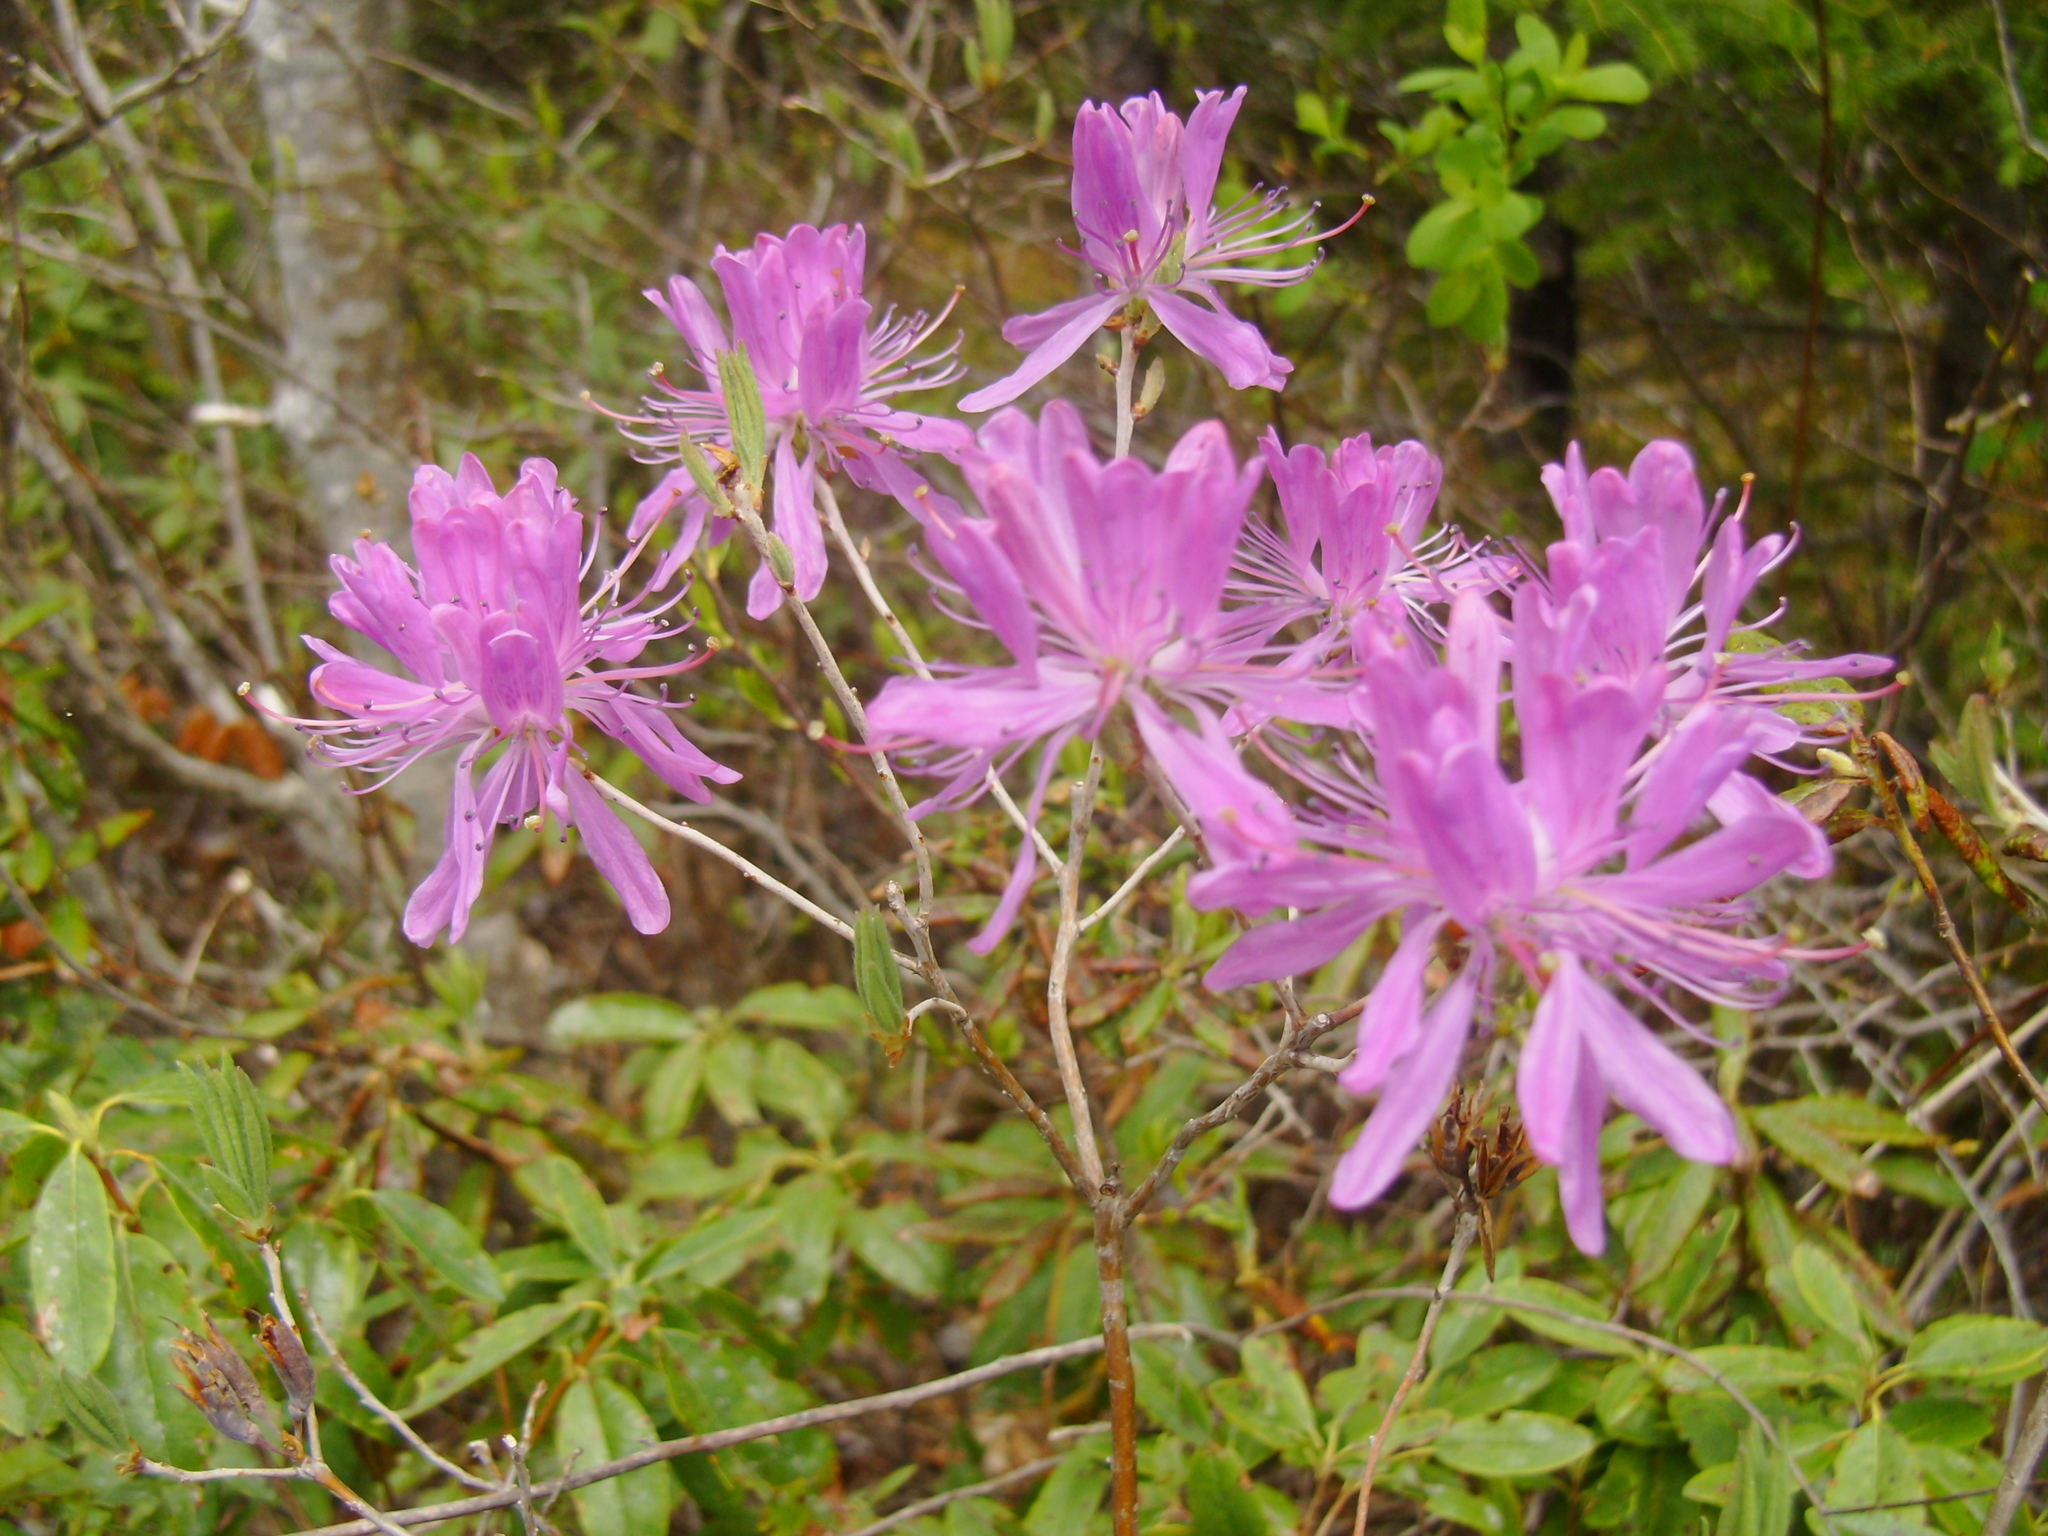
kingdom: Plantae
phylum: Tracheophyta
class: Magnoliopsida
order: Ericales
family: Ericaceae
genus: Rhododendron
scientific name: Rhododendron canadense
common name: Rhodora
